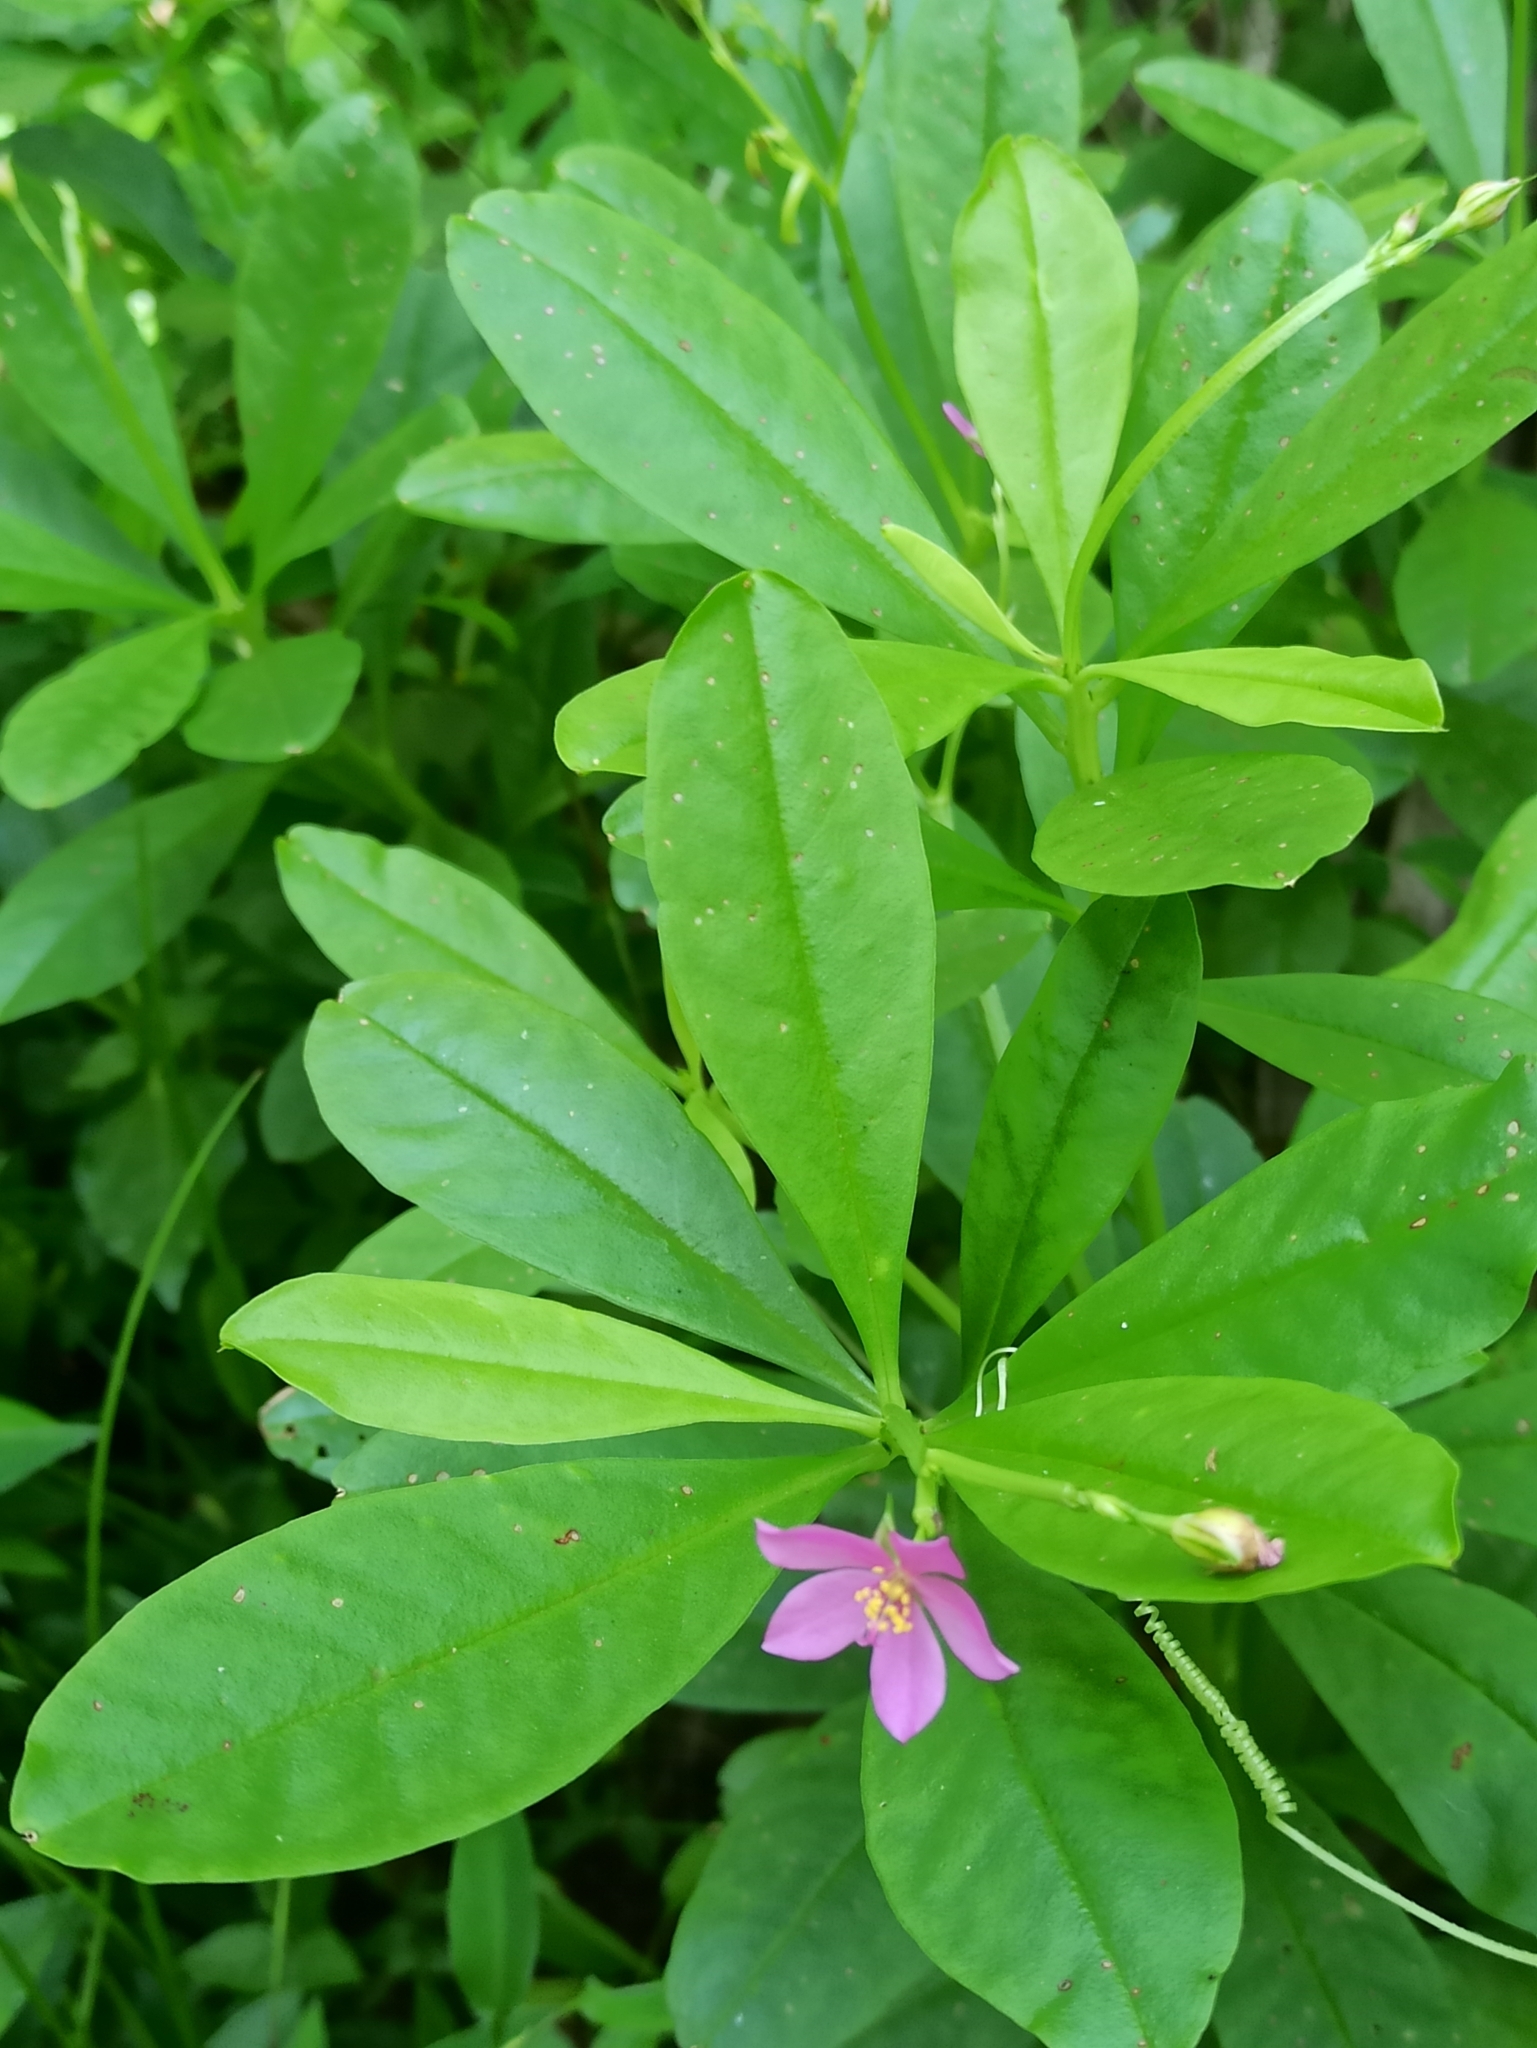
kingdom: Plantae
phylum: Tracheophyta
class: Magnoliopsida
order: Caryophyllales
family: Talinaceae
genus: Talinum
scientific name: Talinum fruticosum
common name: Verdolaga-francesa
